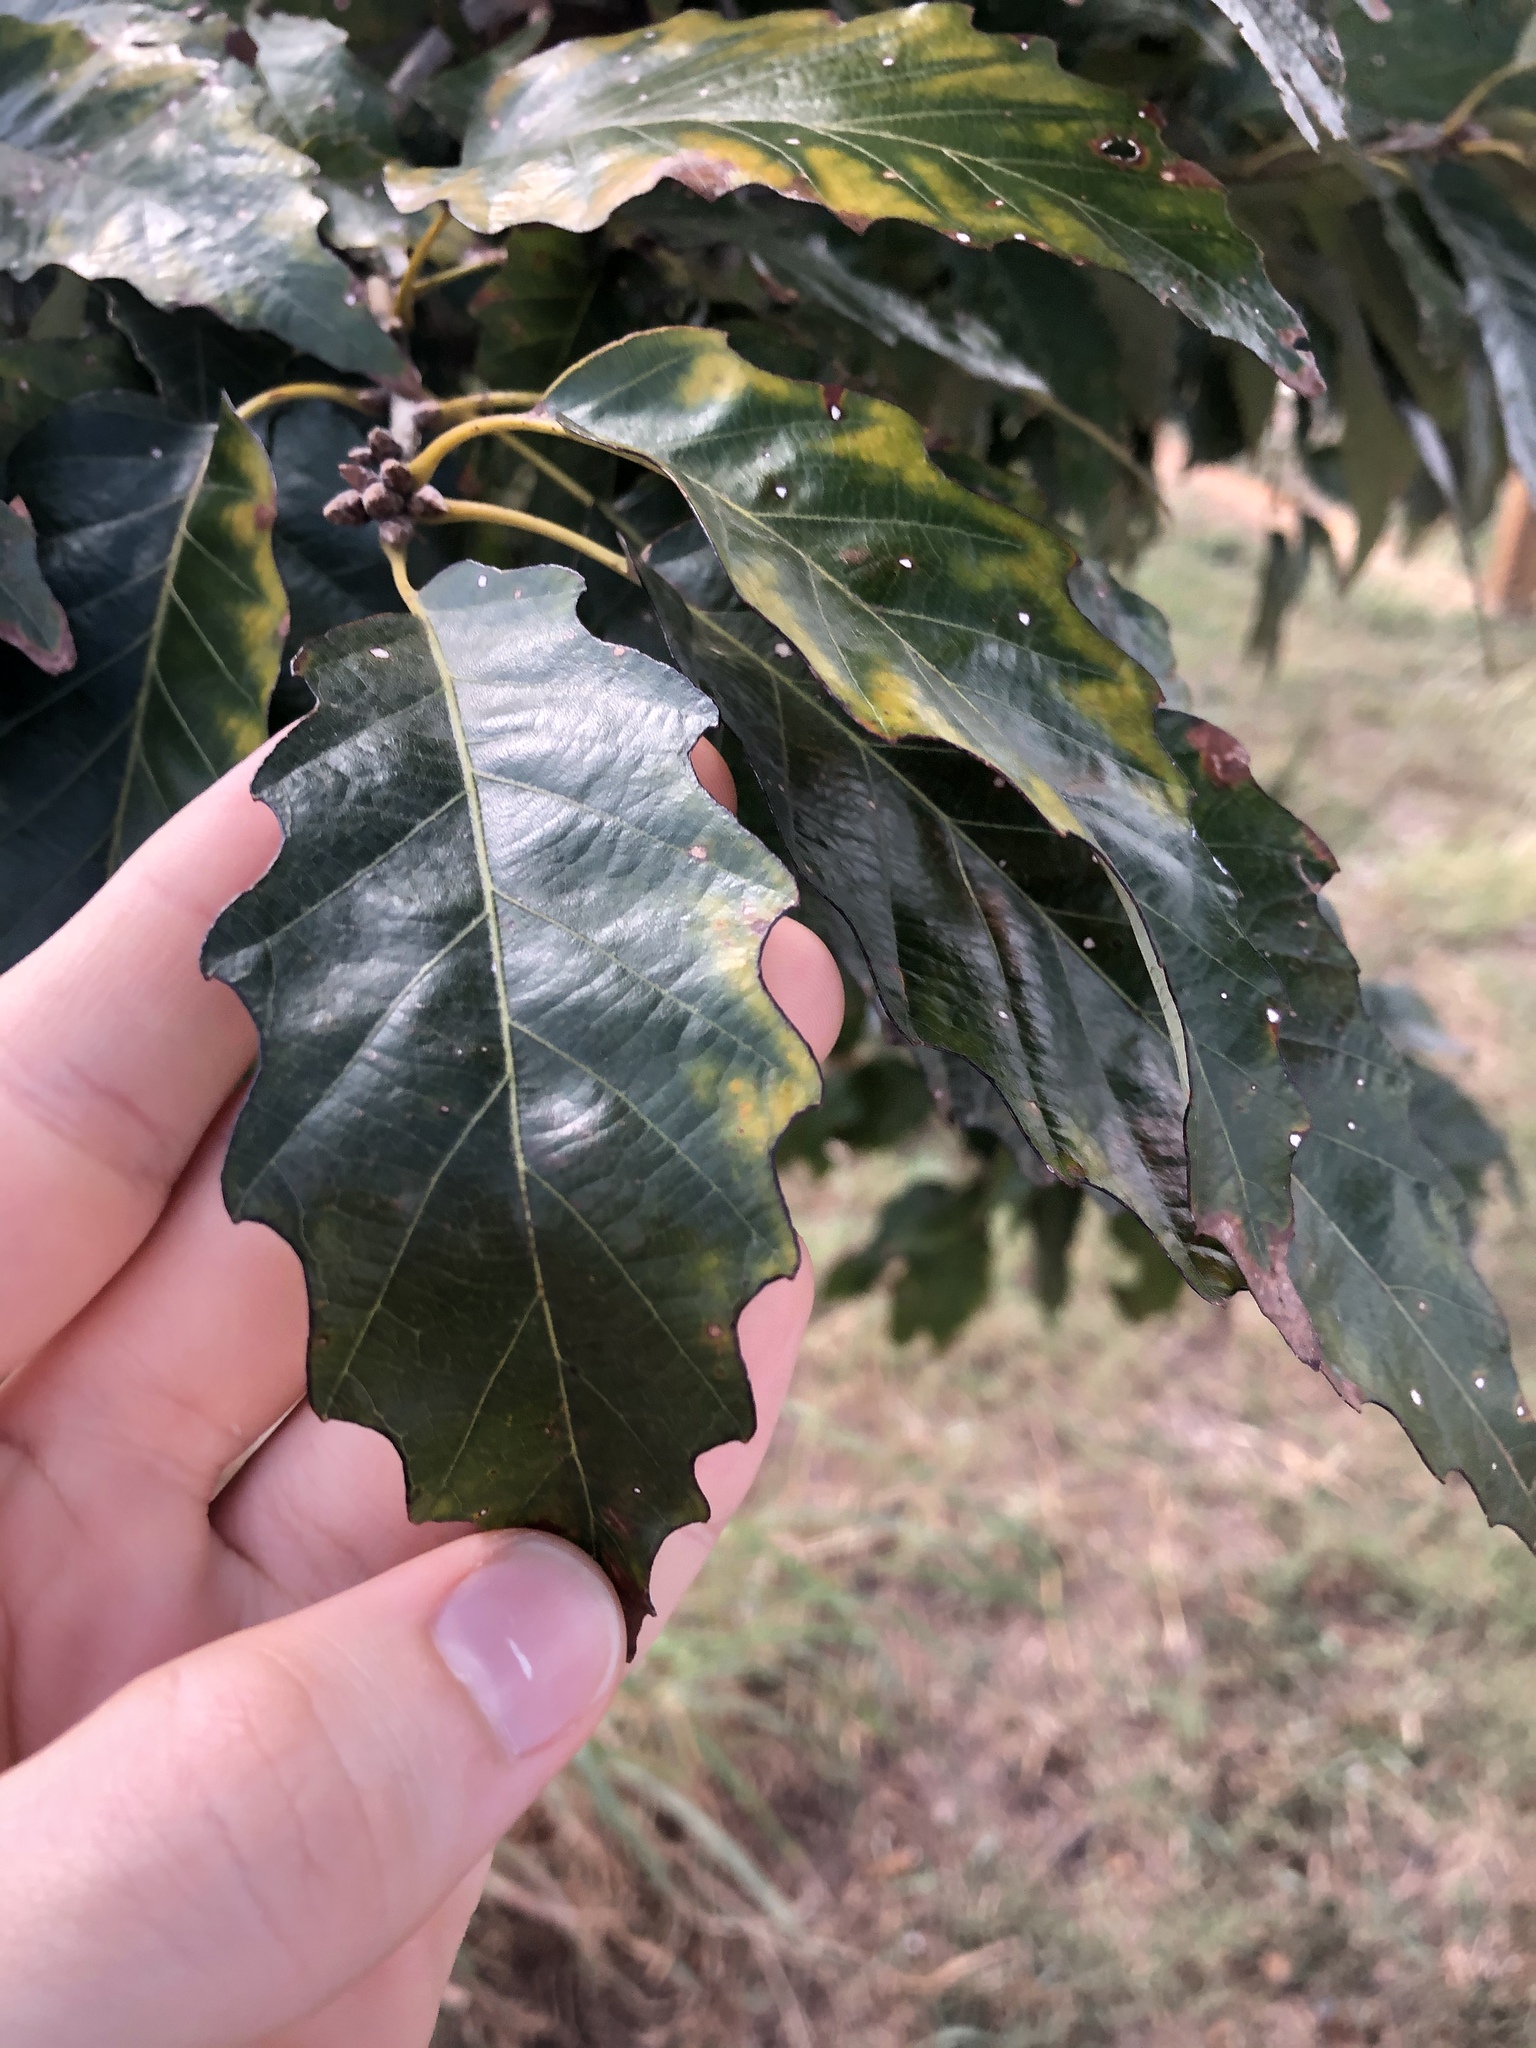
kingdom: Plantae
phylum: Tracheophyta
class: Magnoliopsida
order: Fagales
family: Fagaceae
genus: Quercus
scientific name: Quercus muehlenbergii
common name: Chinkapin oak
